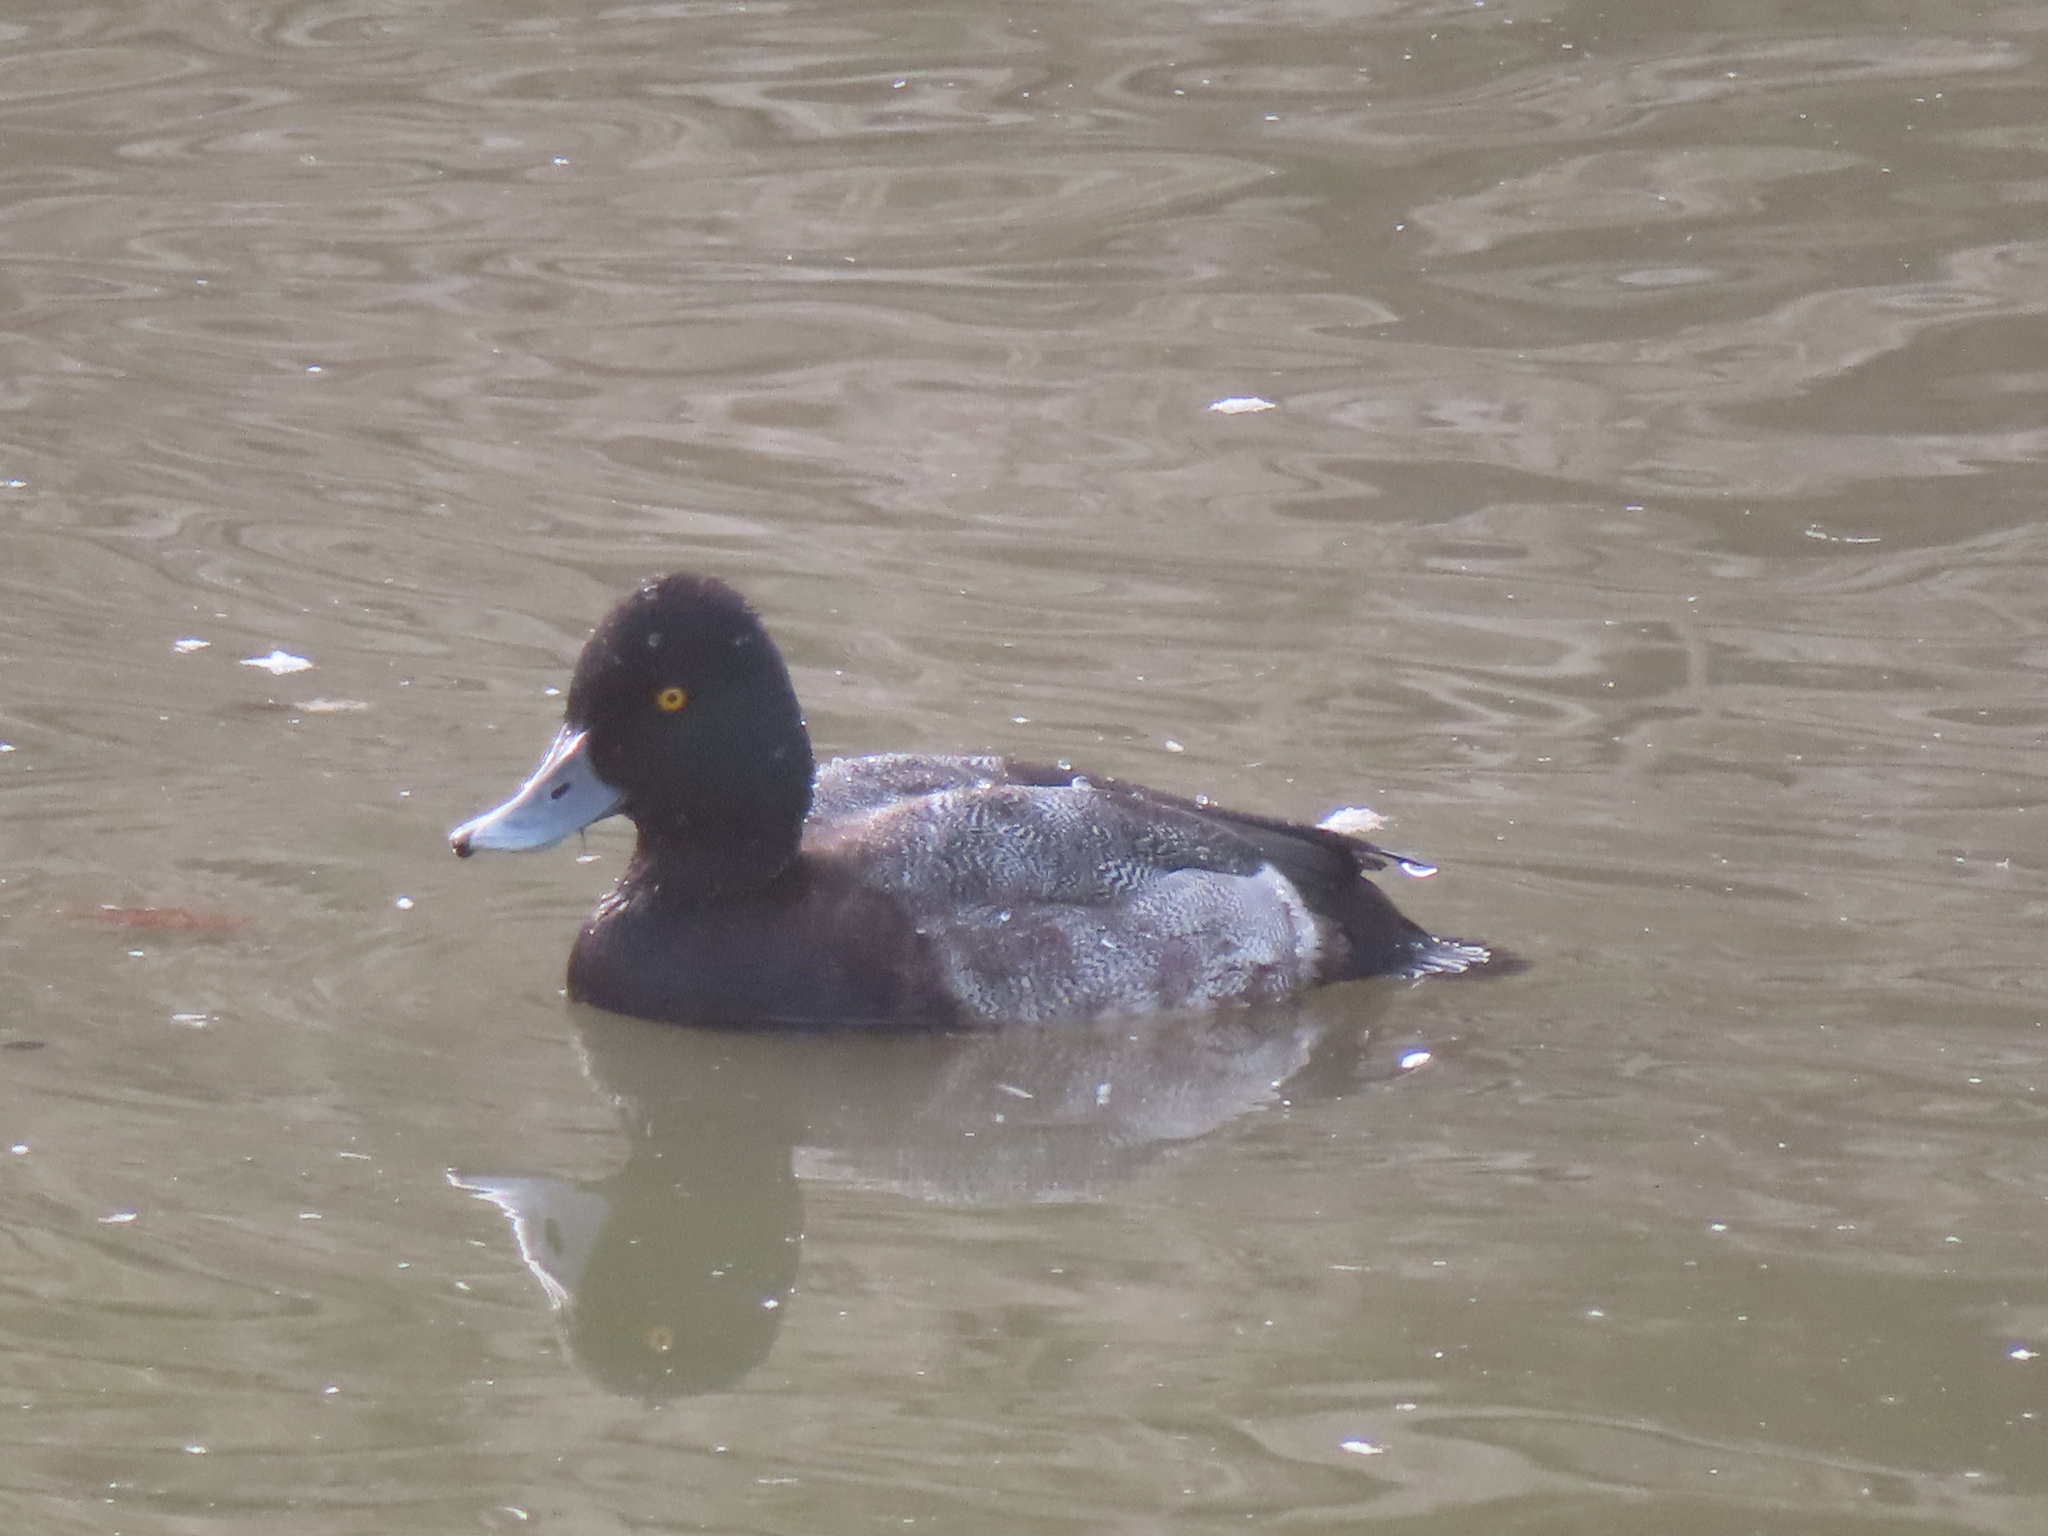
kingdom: Animalia
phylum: Chordata
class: Aves
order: Anseriformes
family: Anatidae
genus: Aythya
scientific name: Aythya affinis
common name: Lesser scaup
